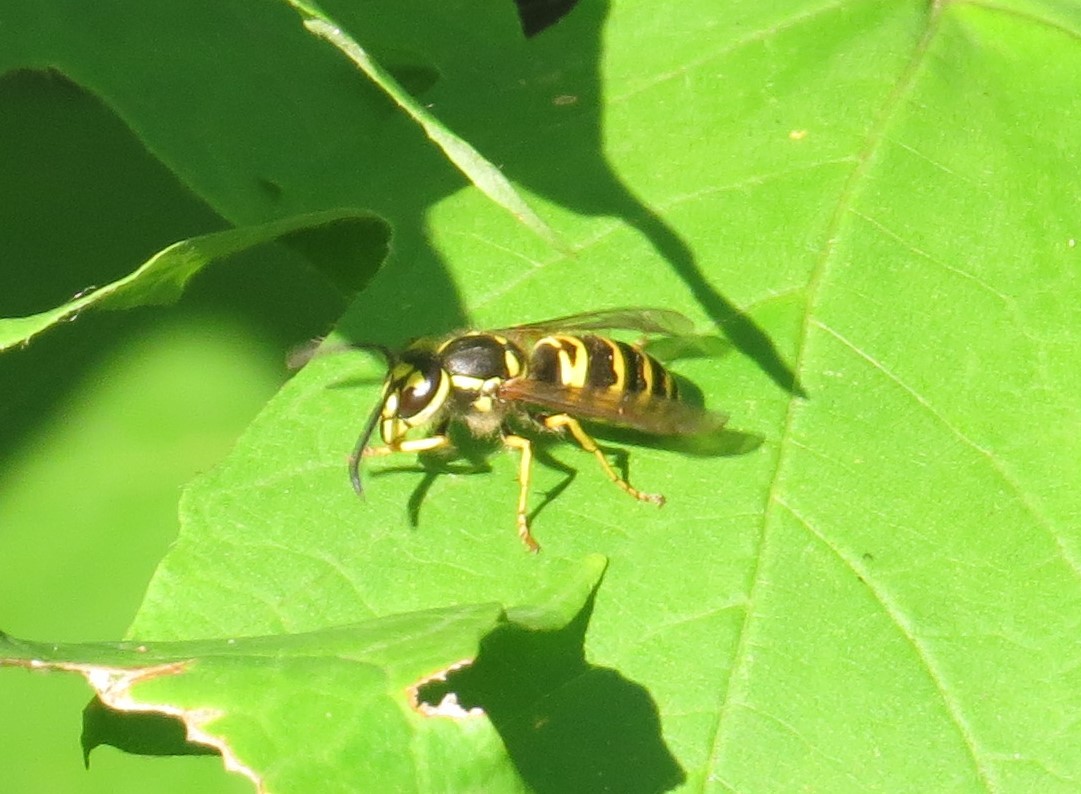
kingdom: Animalia
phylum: Arthropoda
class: Insecta
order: Hymenoptera
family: Vespidae
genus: Vespula
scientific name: Vespula maculifrons
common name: Eastern yellowjacket
